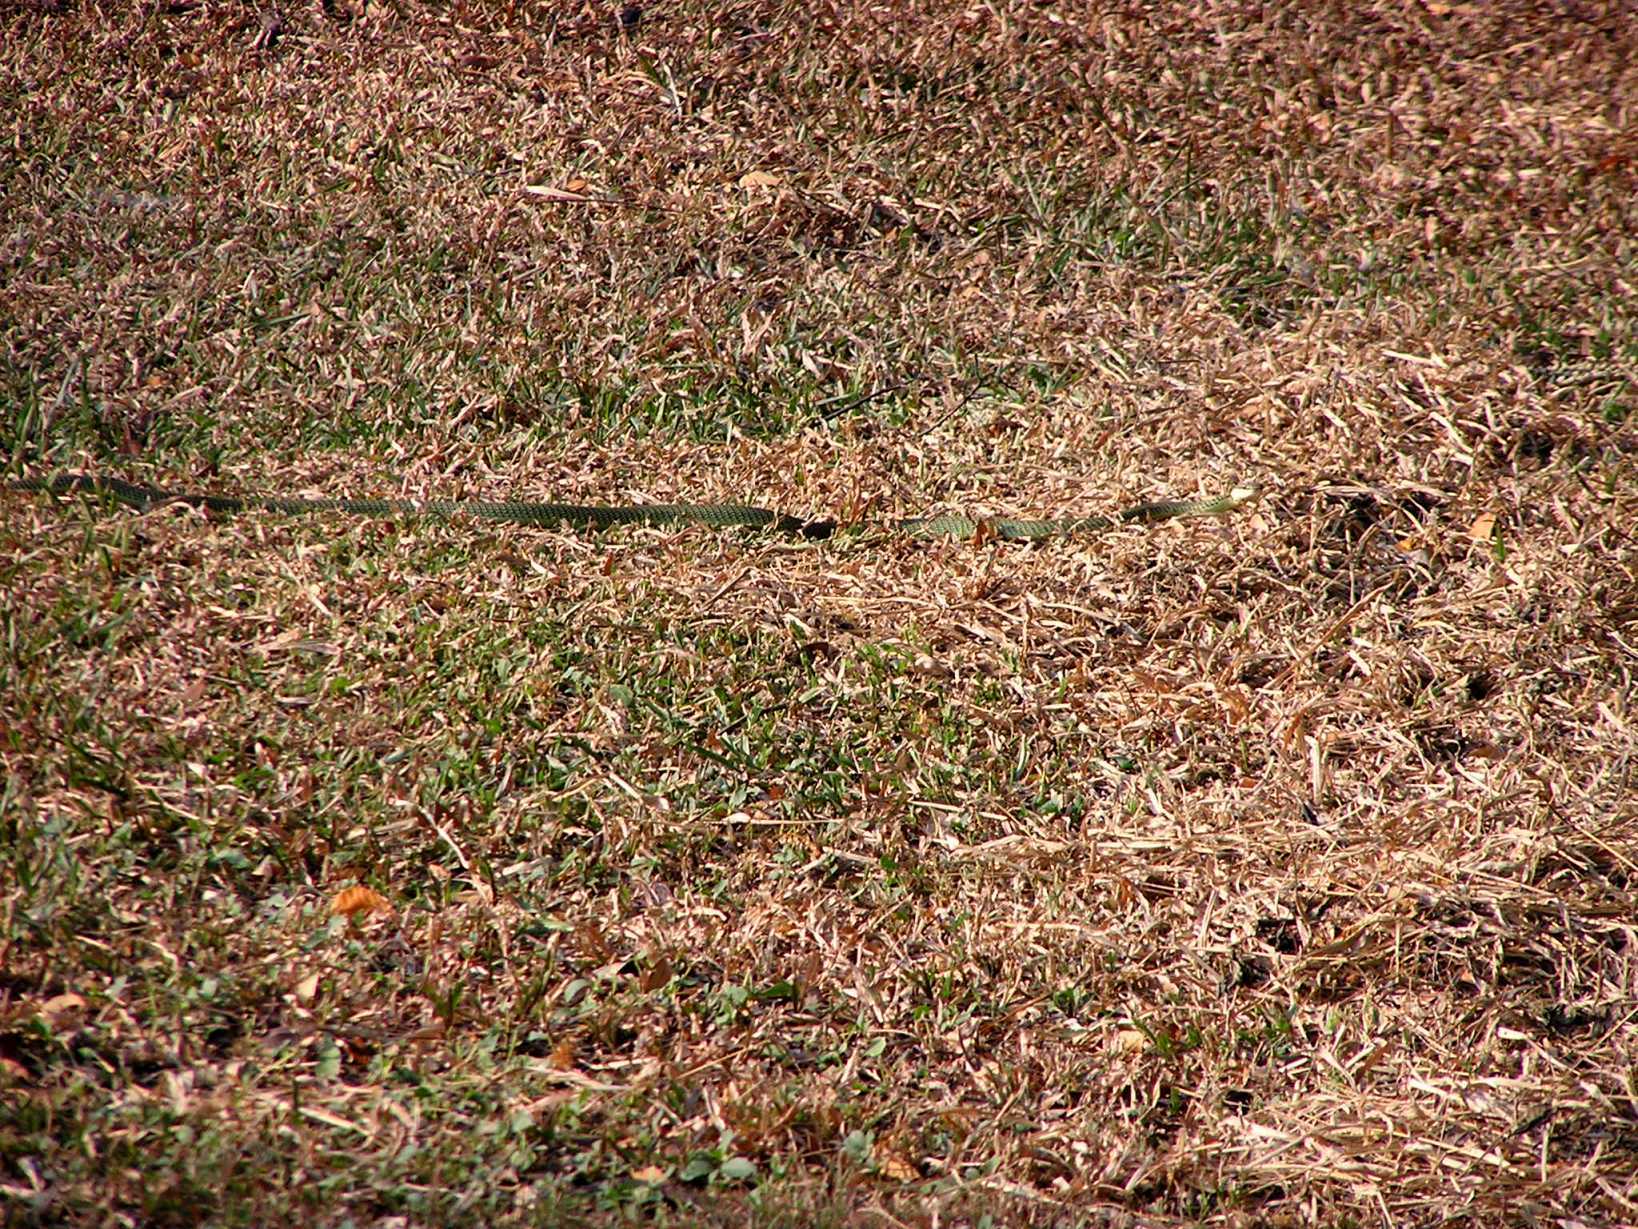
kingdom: Animalia
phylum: Chordata
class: Squamata
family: Colubridae
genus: Chrysopelea
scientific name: Chrysopelea ornata
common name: Golden flying snake
